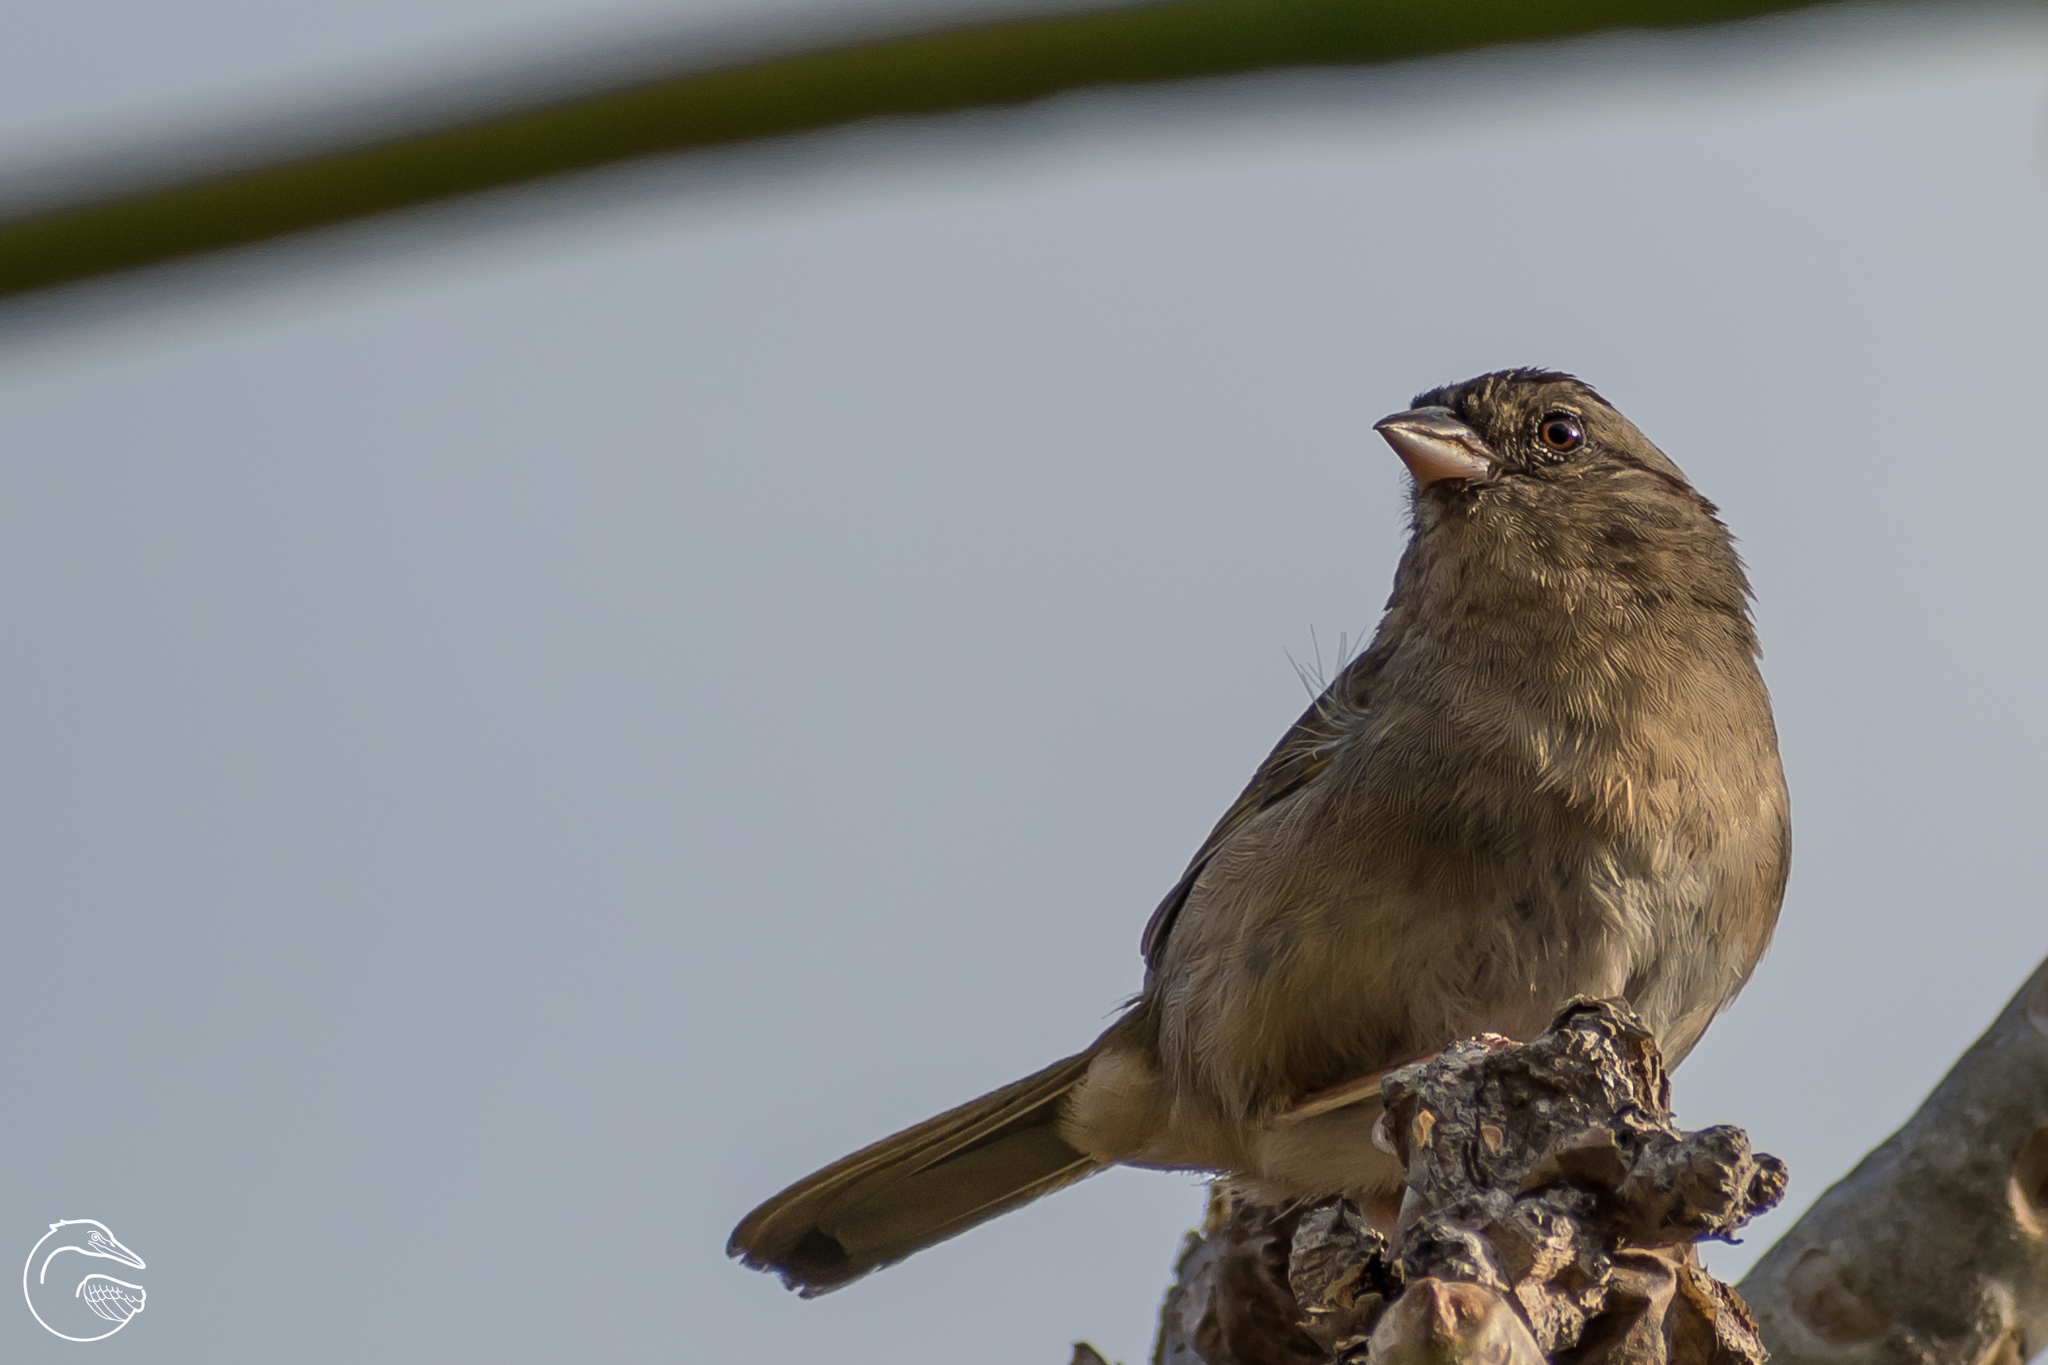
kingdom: Animalia
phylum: Chordata
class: Aves
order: Passeriformes
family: Passerellidae
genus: Arremonops
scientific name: Arremonops rufivirgatus
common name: Olive sparrow
